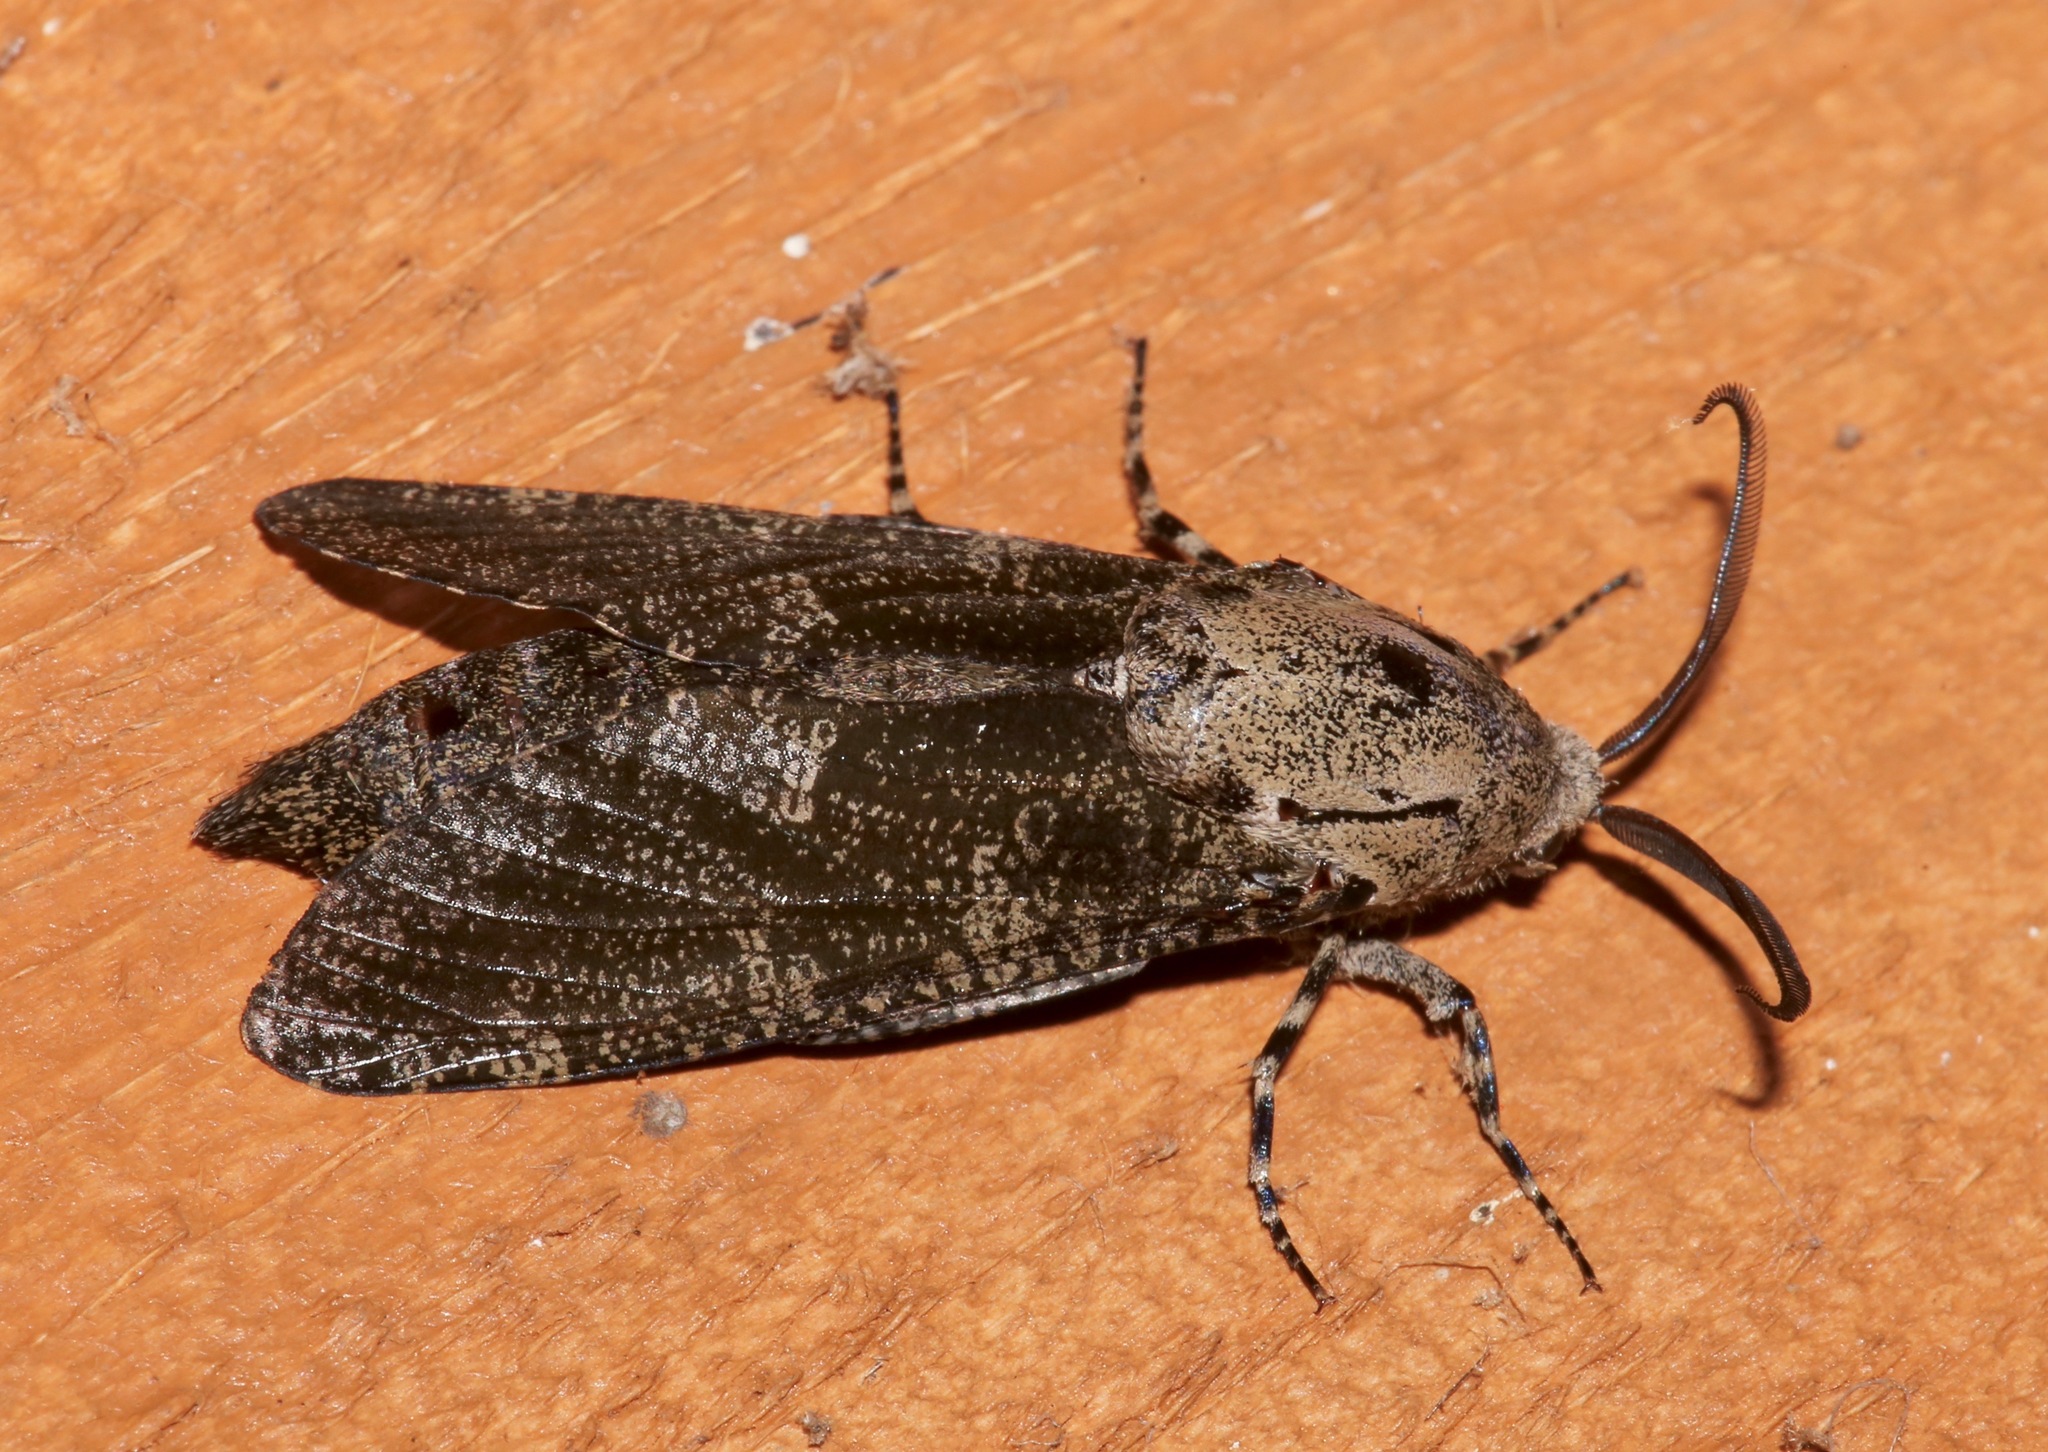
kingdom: Animalia
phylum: Arthropoda
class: Insecta
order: Lepidoptera
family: Cossidae
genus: Prionoxystus
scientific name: Prionoxystus robiniae
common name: Carpenterworm
